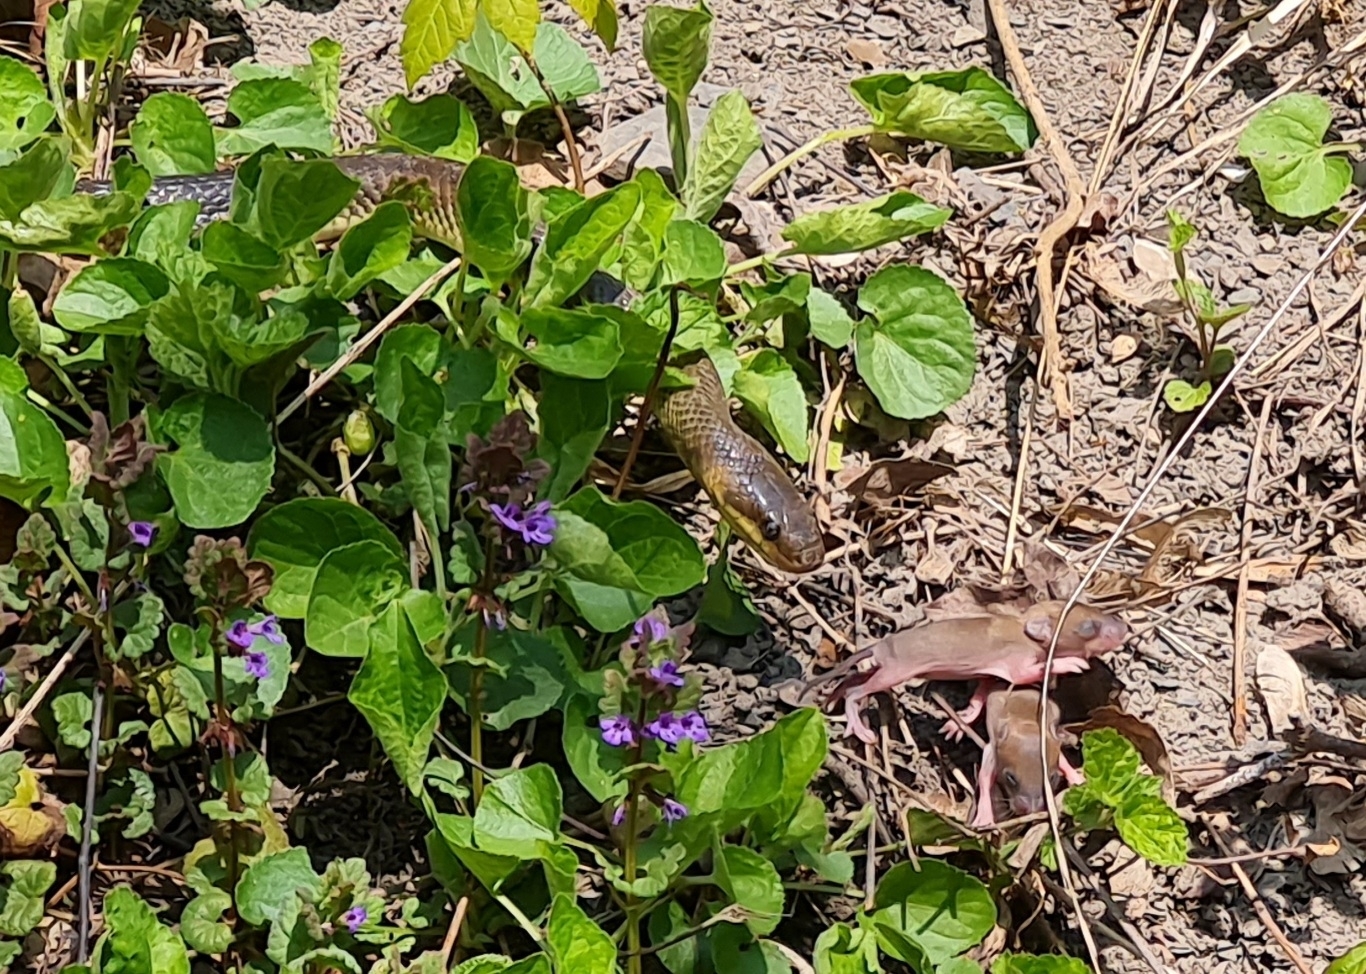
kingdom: Animalia
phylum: Chordata
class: Squamata
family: Colubridae
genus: Zamenis
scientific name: Zamenis longissimus
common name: Aesculapean snake
